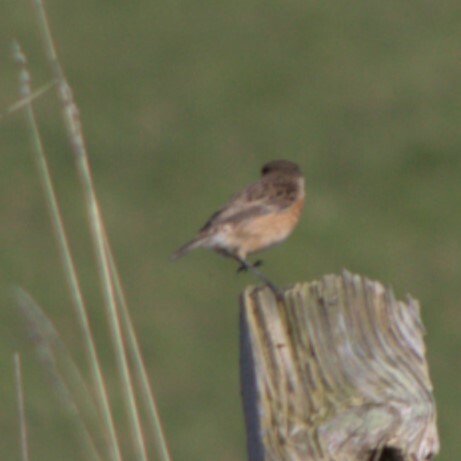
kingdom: Animalia
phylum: Chordata
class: Aves
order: Passeriformes
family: Muscicapidae
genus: Saxicola
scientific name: Saxicola rubicola
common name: European stonechat
